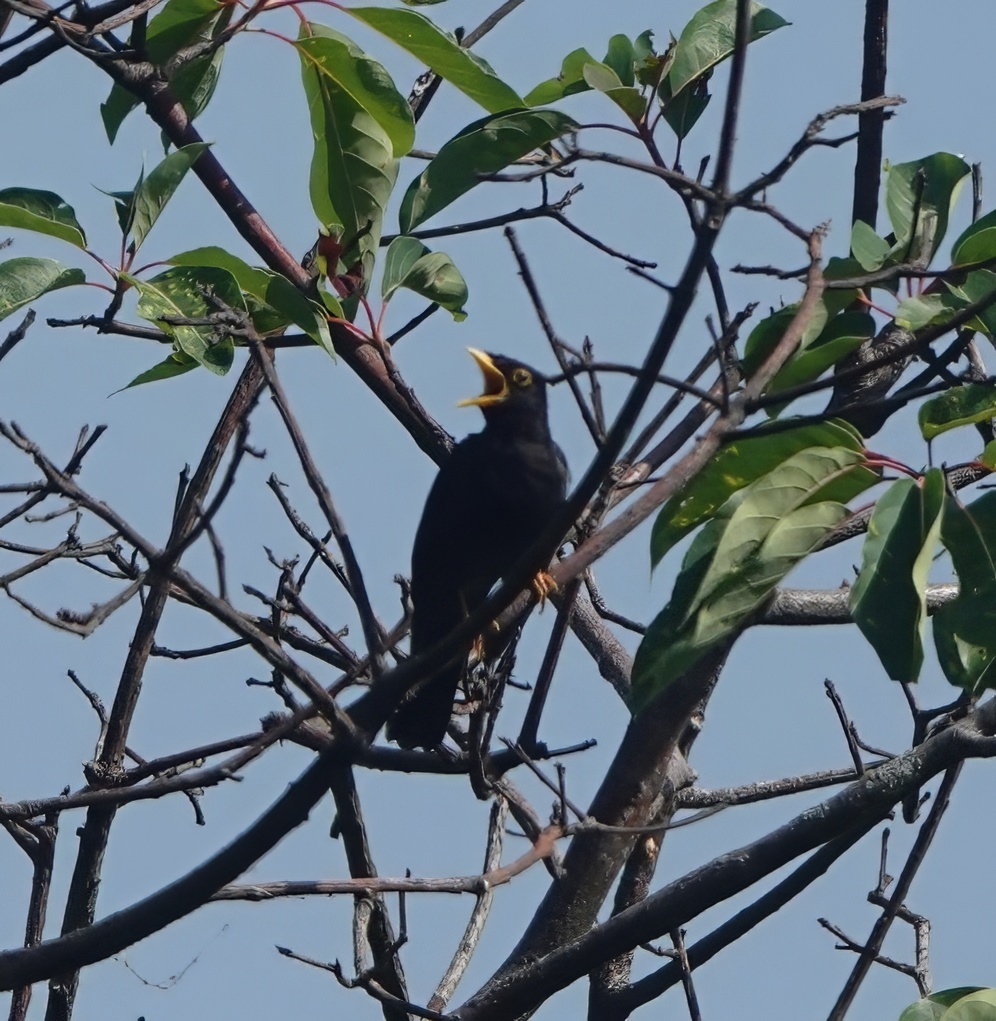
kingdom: Animalia
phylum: Chordata
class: Aves
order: Passeriformes
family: Turdidae
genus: Turdus
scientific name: Turdus flavipes
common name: Yellow-legged thrush
